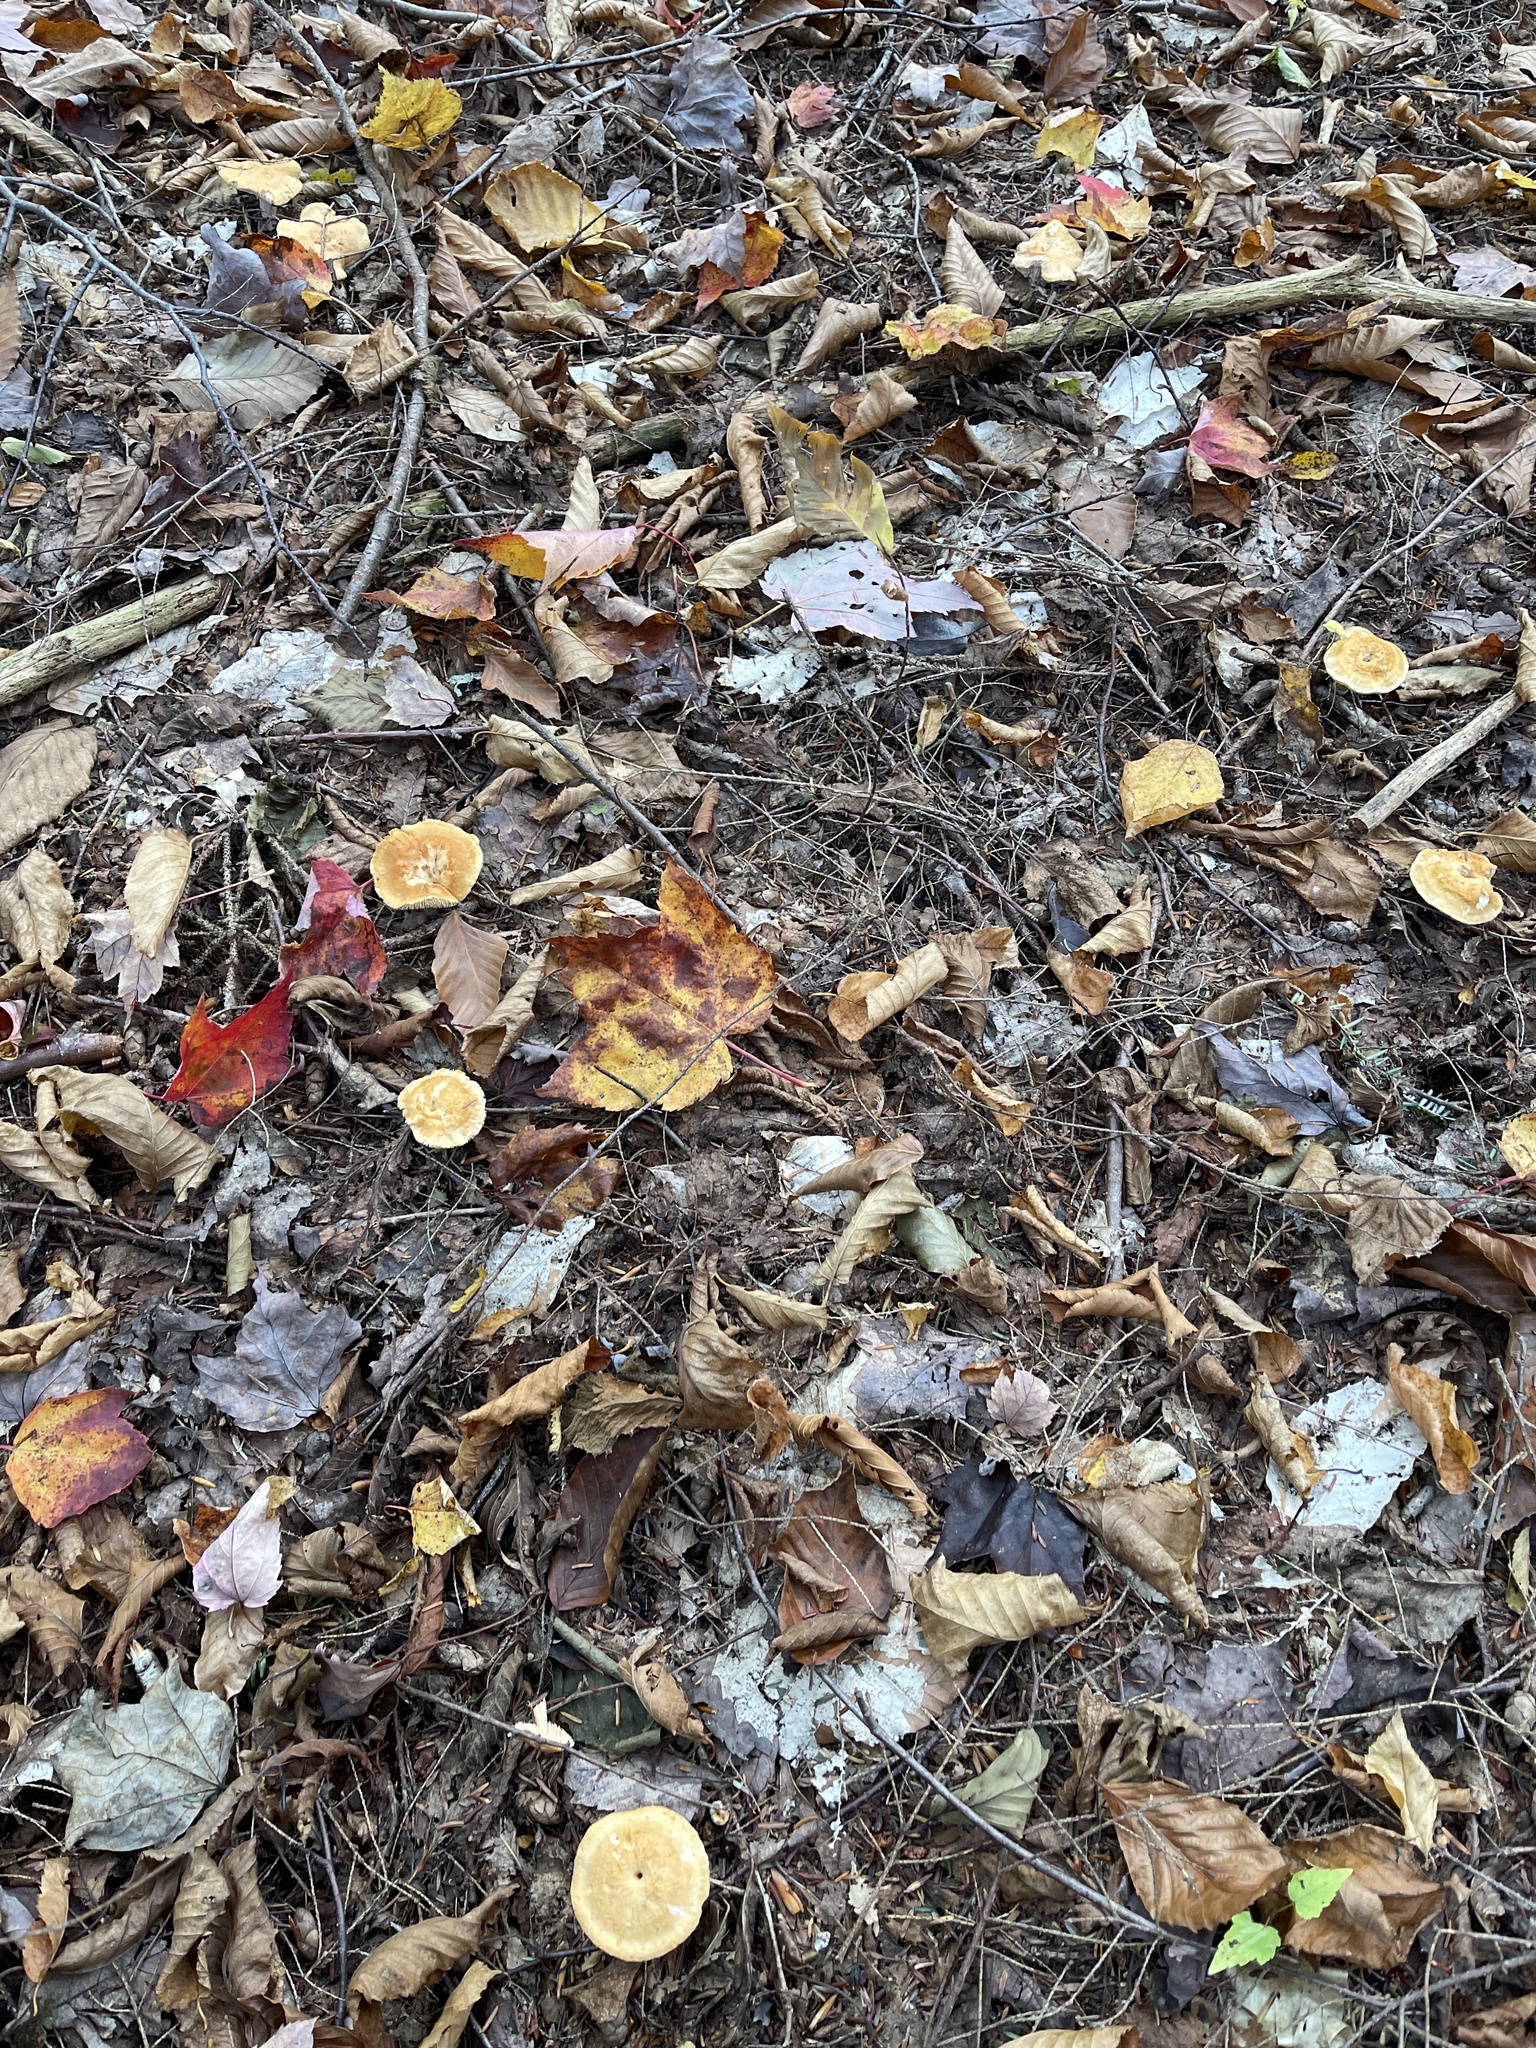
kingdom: Fungi
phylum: Basidiomycota
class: Agaricomycetes
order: Cantharellales
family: Hydnaceae
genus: Hydnum
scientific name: Hydnum umbilicatum
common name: Umbilicate hedgehog
